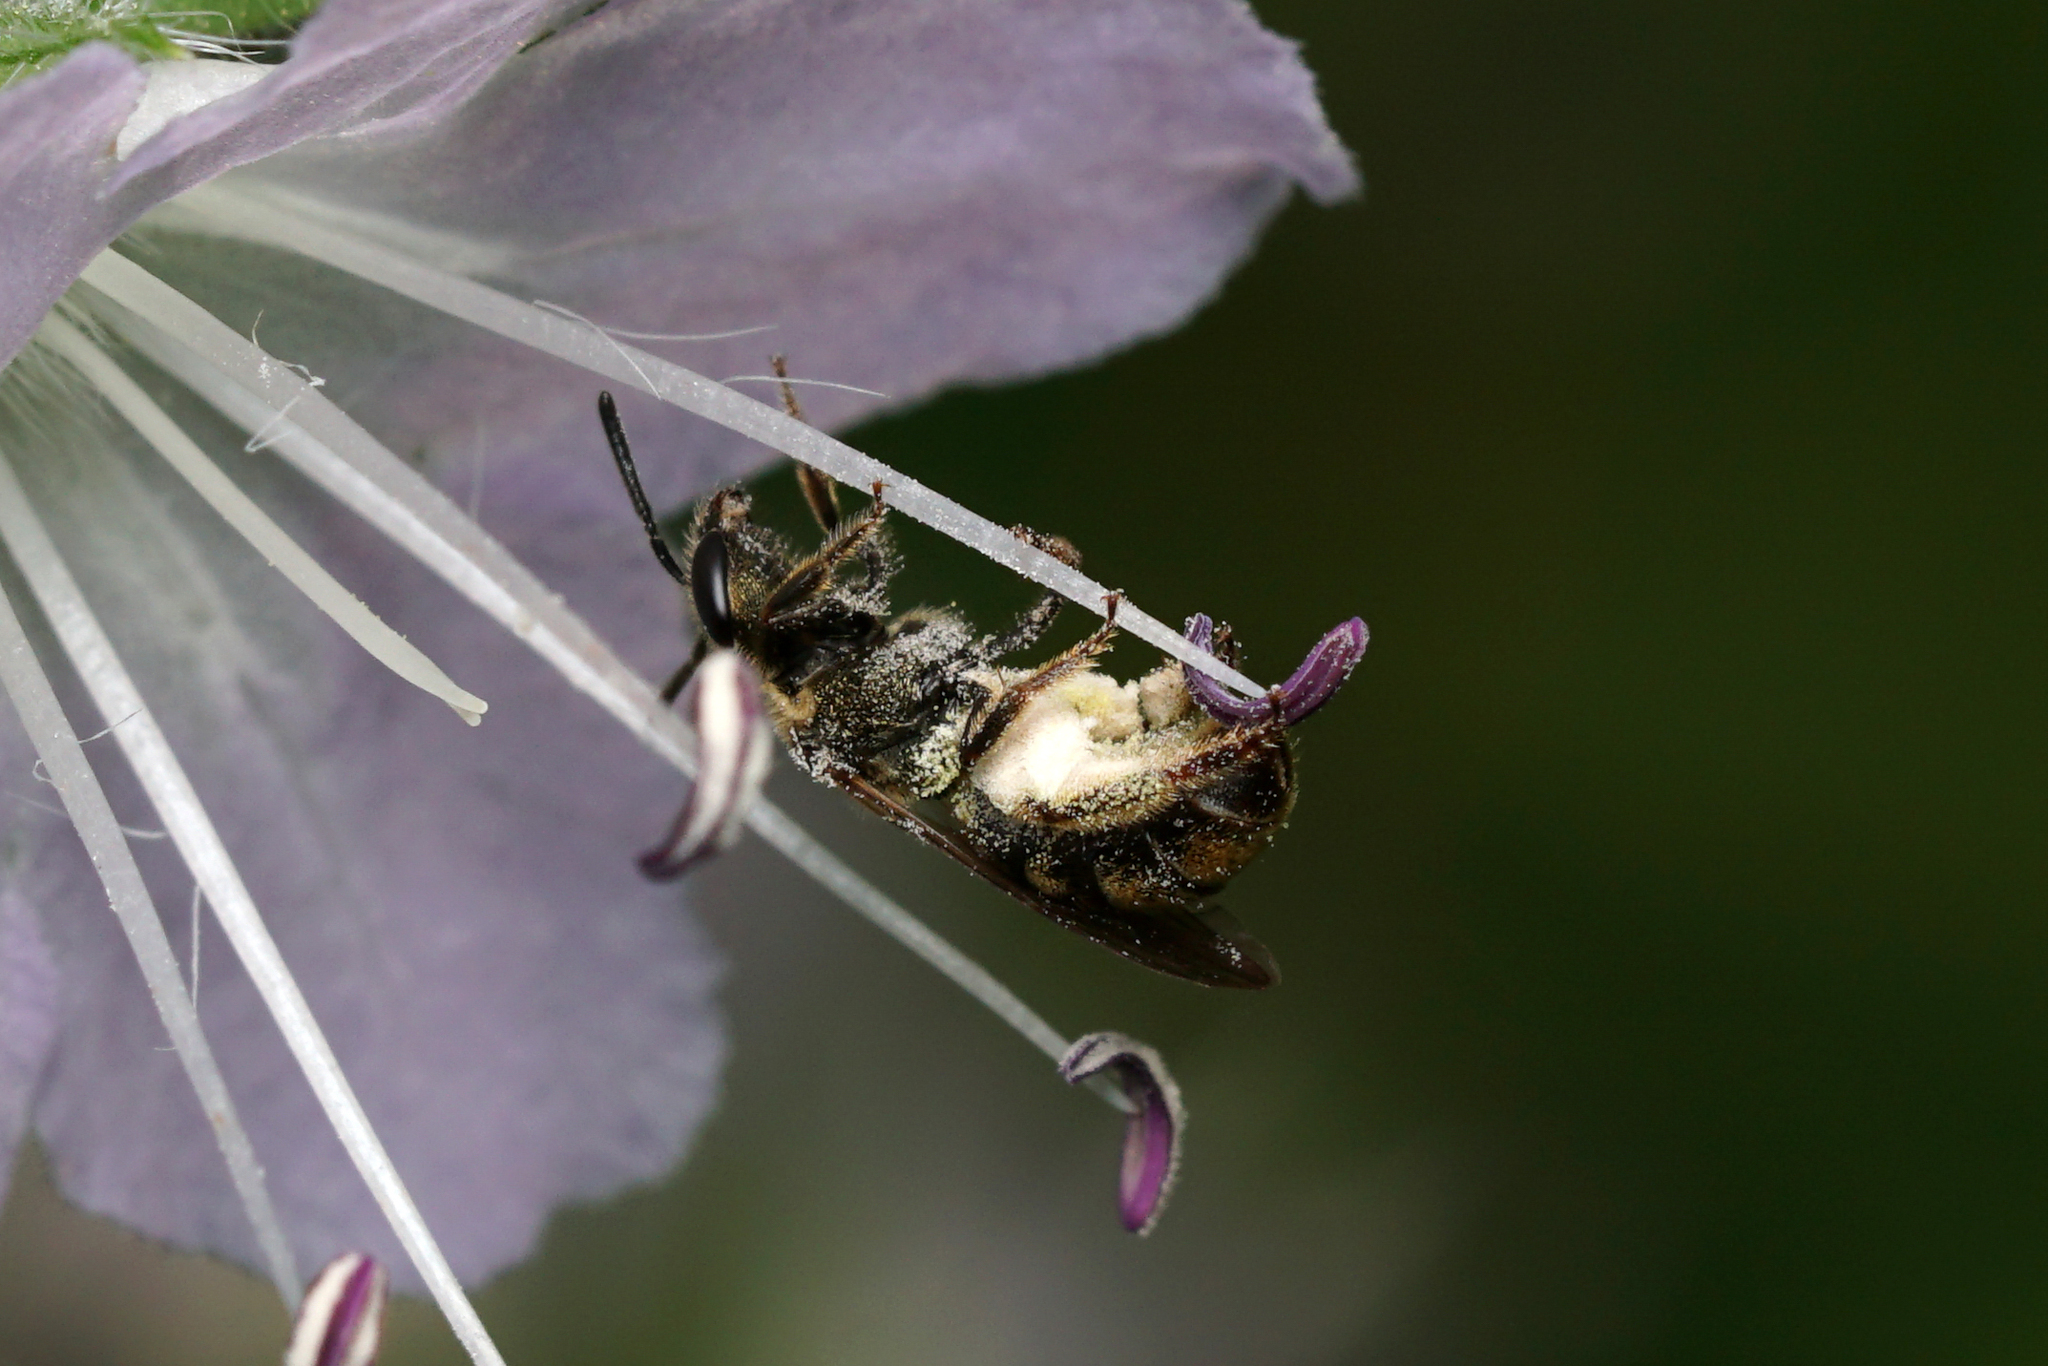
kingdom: Animalia
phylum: Arthropoda
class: Insecta
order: Hymenoptera
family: Halictidae
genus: Dialictus
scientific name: Dialictus
